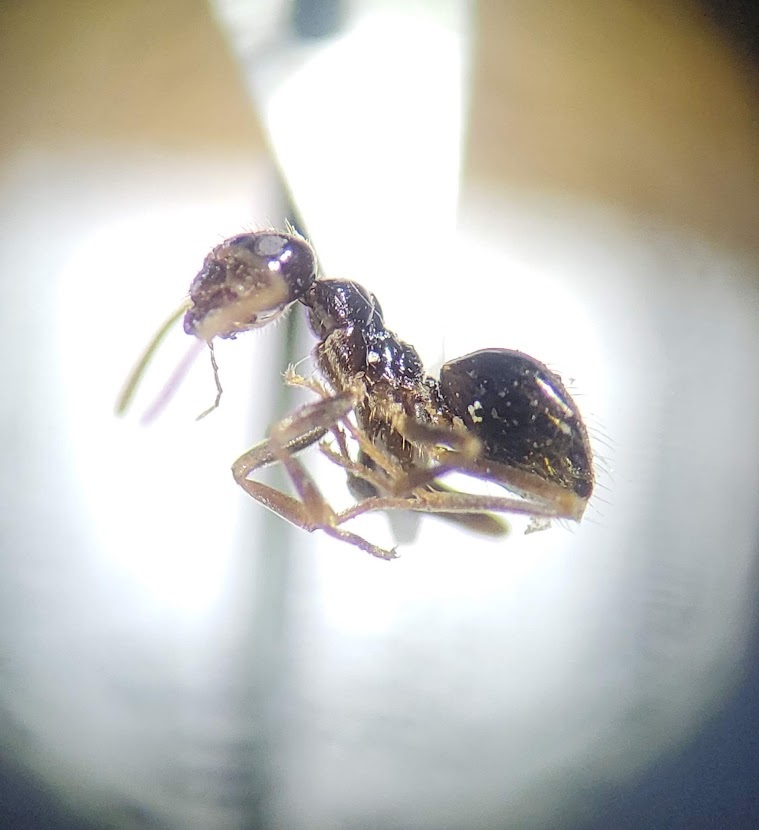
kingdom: Animalia
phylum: Arthropoda
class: Insecta
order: Hymenoptera
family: Formicidae
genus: Prenolepis
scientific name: Prenolepis imparis
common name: Small honey ant
